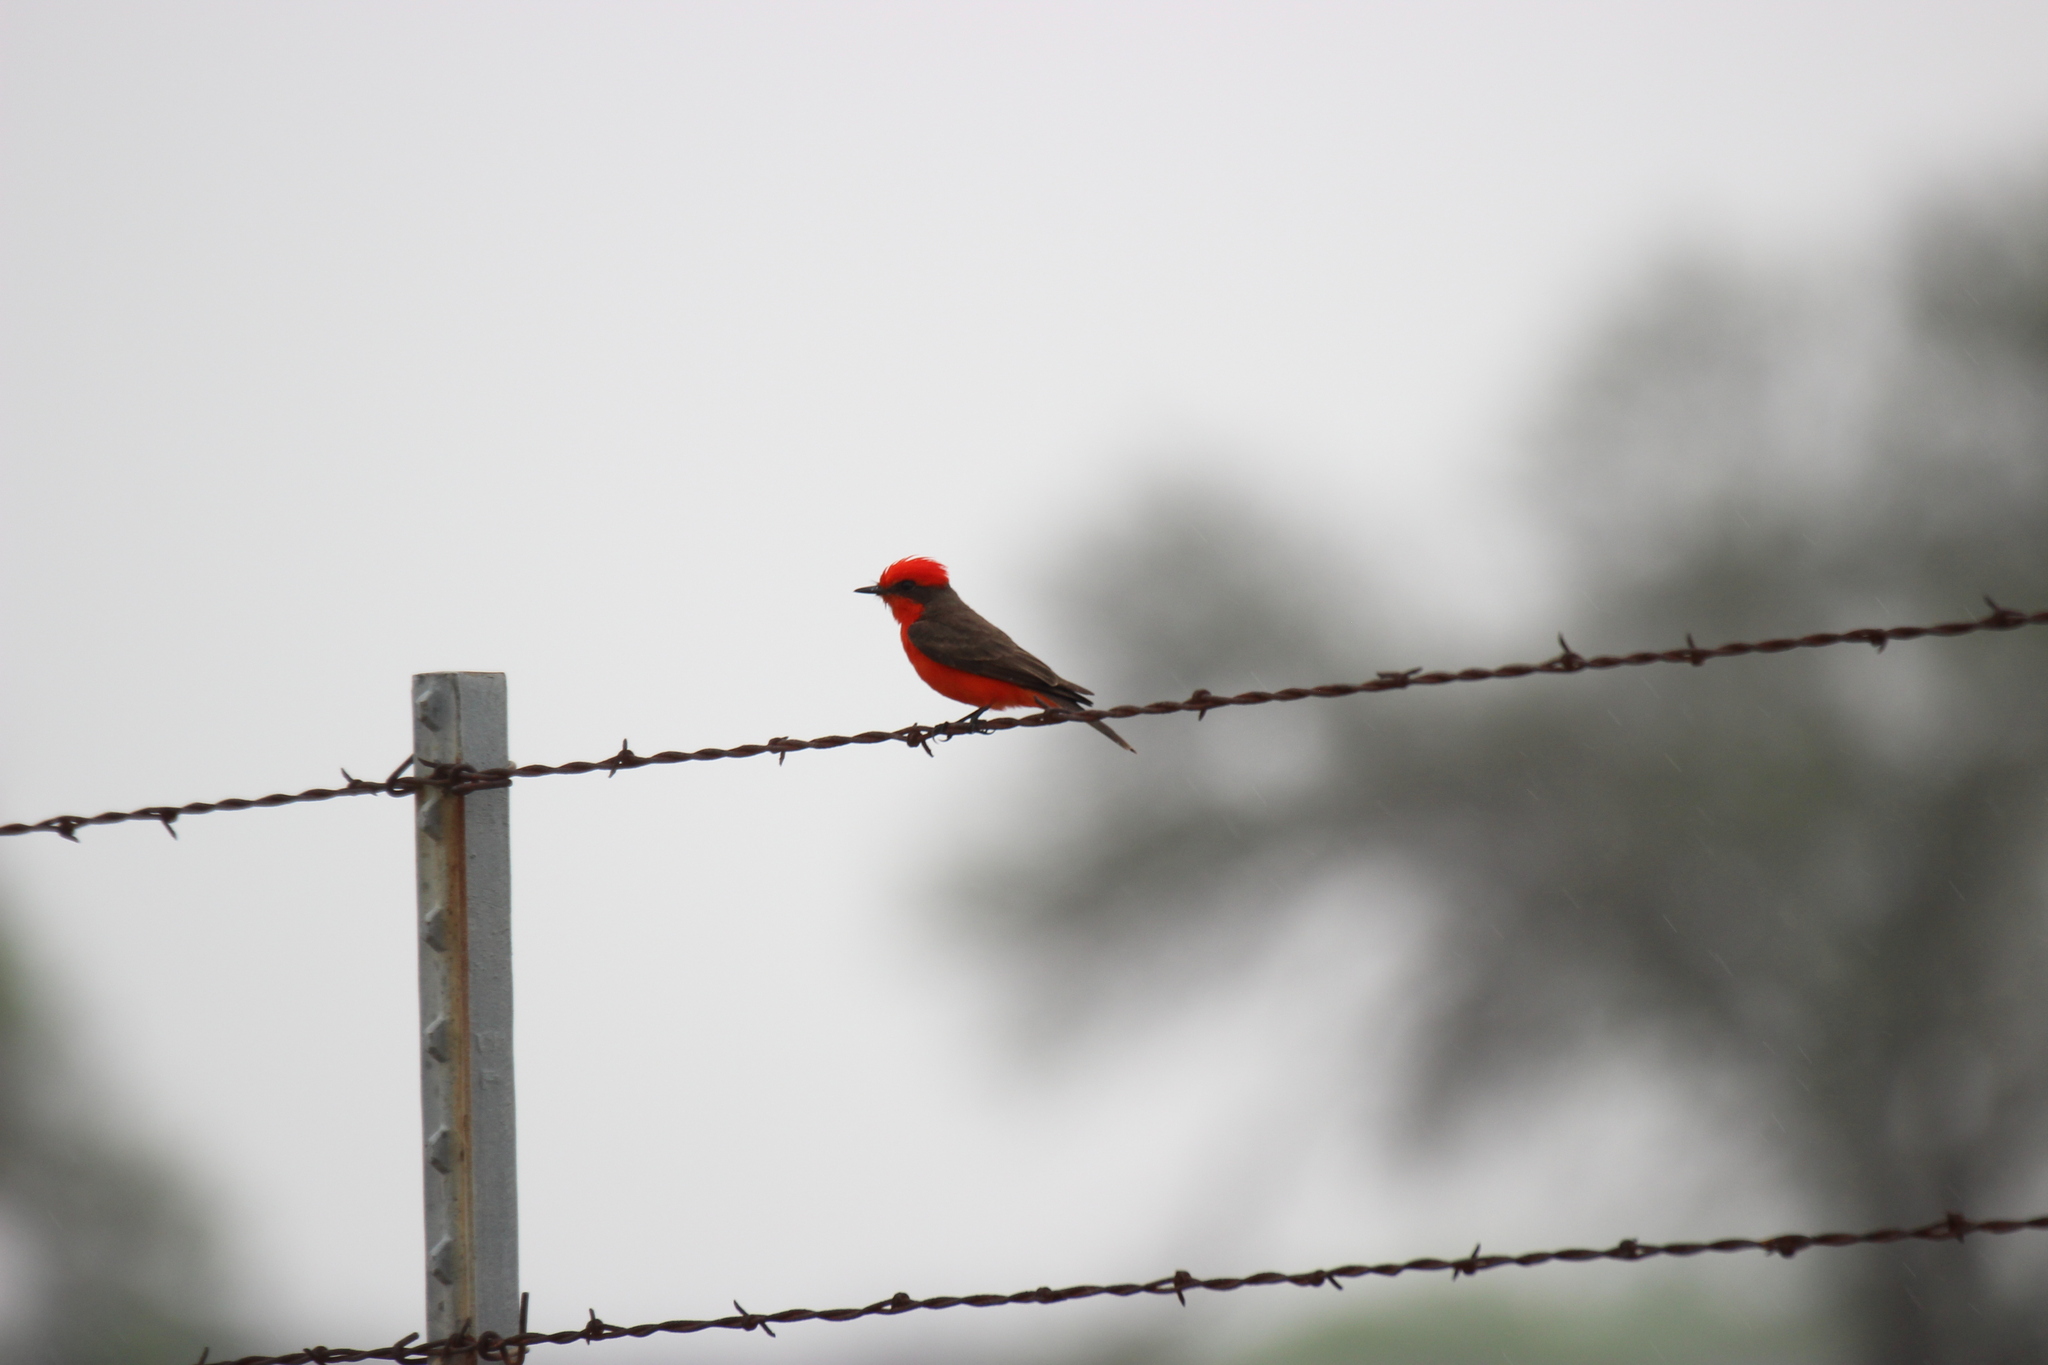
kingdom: Animalia
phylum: Chordata
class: Aves
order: Passeriformes
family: Tyrannidae
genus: Pyrocephalus
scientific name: Pyrocephalus rubinus
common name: Vermilion flycatcher
